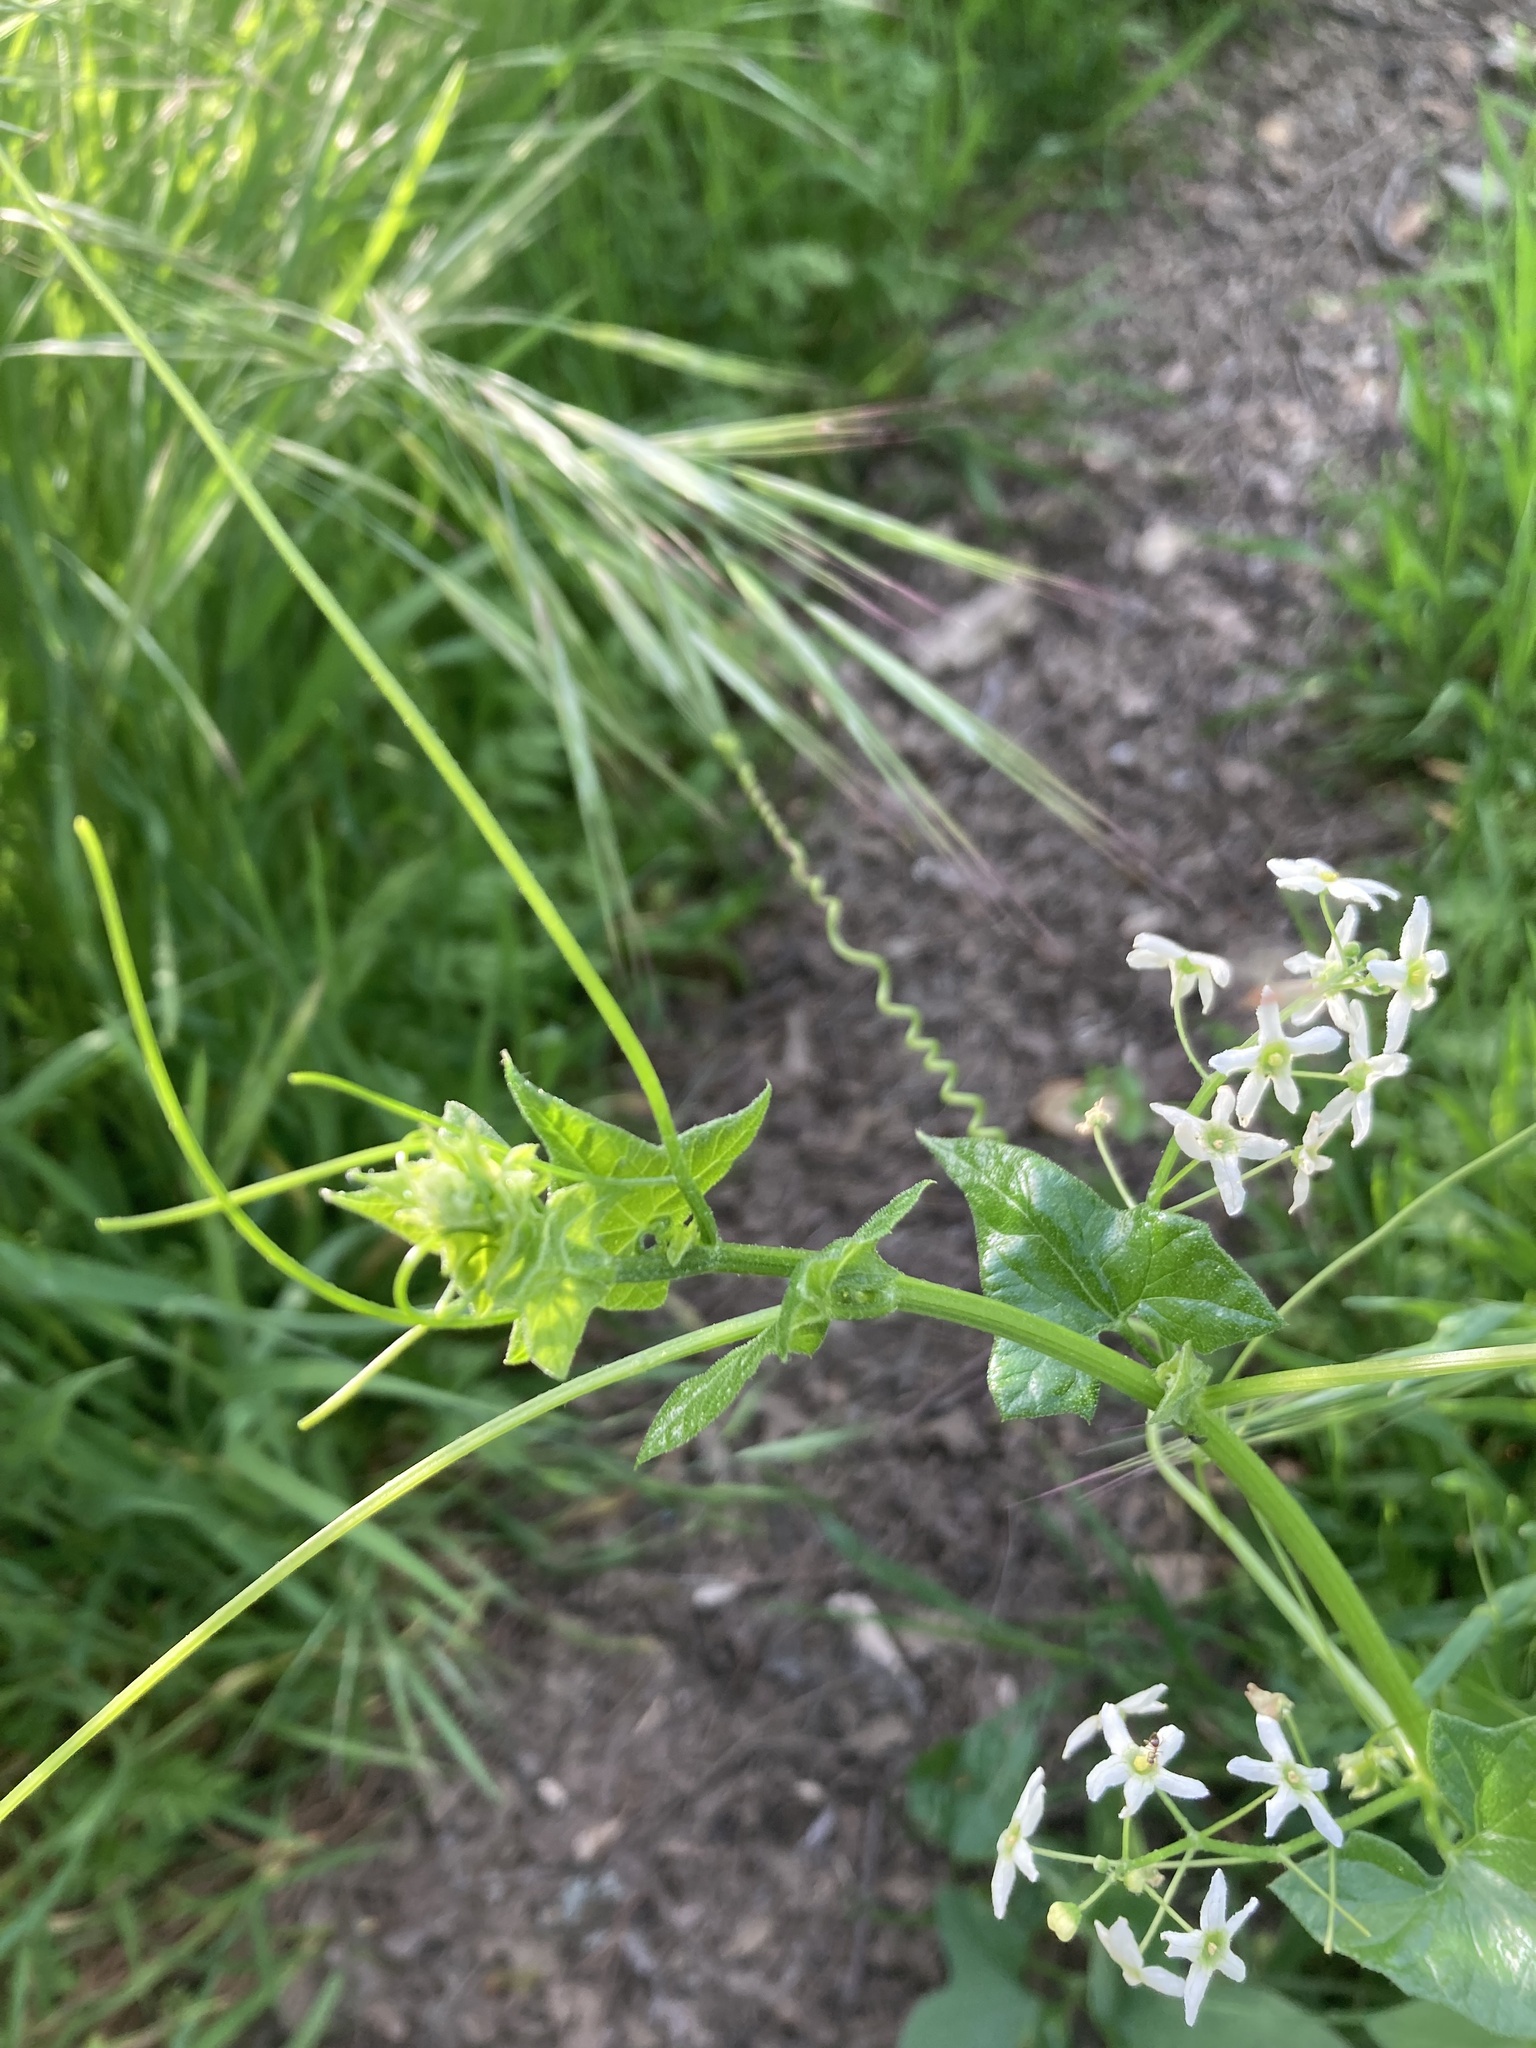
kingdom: Plantae
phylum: Tracheophyta
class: Magnoliopsida
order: Cucurbitales
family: Cucurbitaceae
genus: Marah
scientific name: Marah fabacea
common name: California manroot
